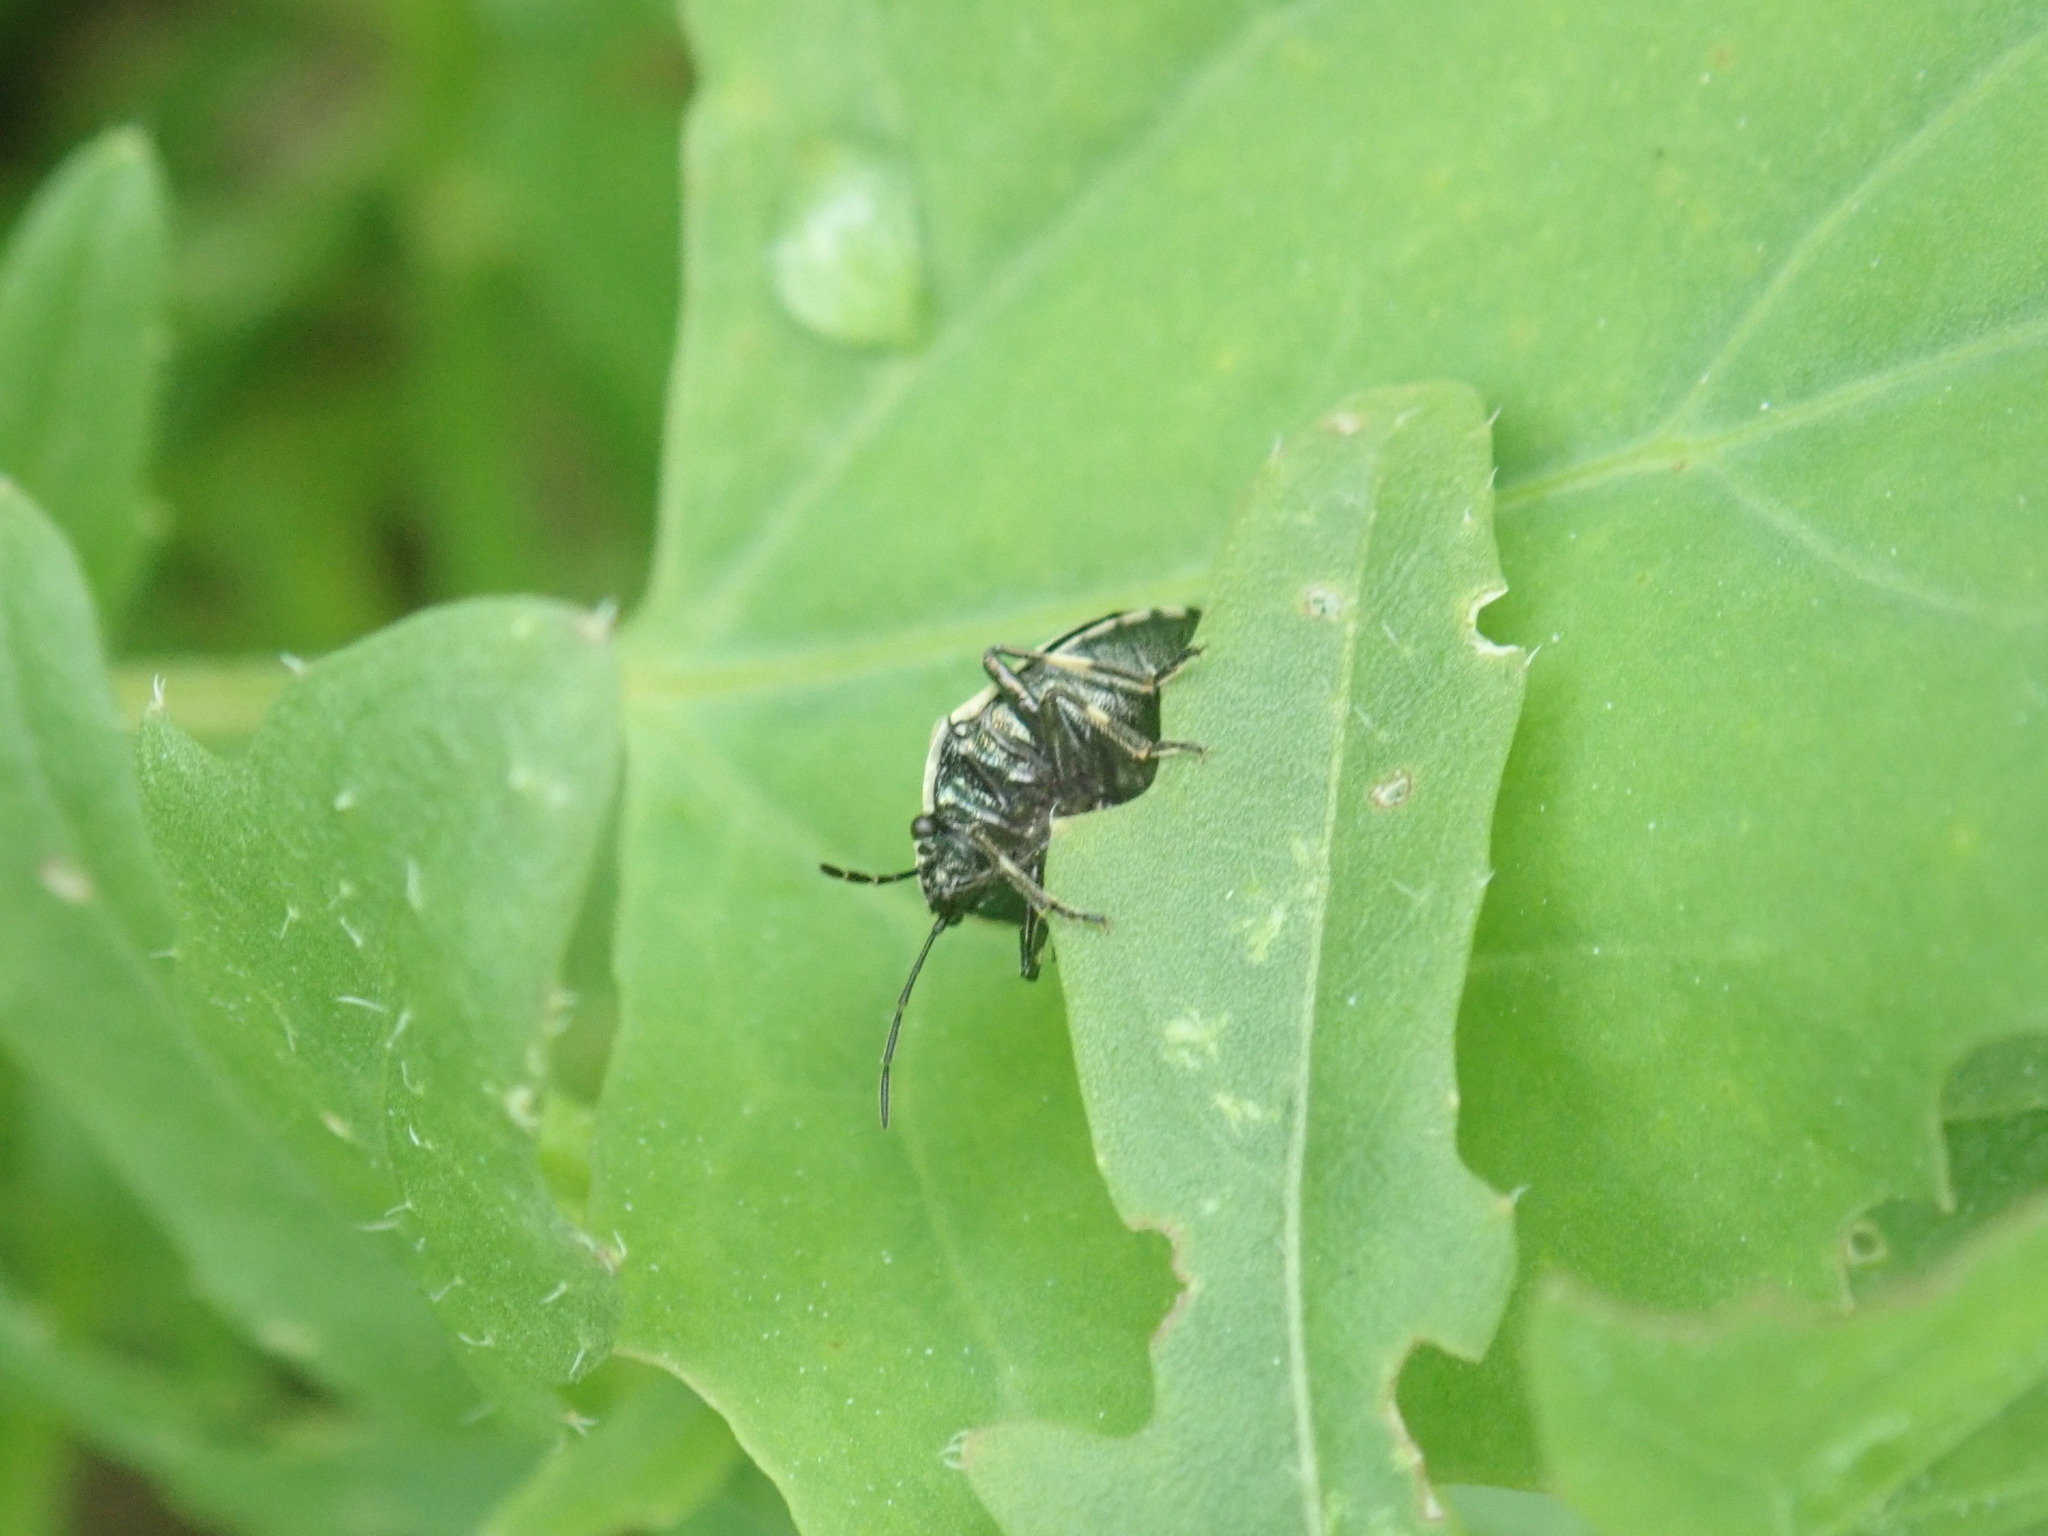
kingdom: Animalia
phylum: Arthropoda
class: Insecta
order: Hemiptera
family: Pentatomidae
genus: Eurydema
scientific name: Eurydema oleracea
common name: Cabbage bug
